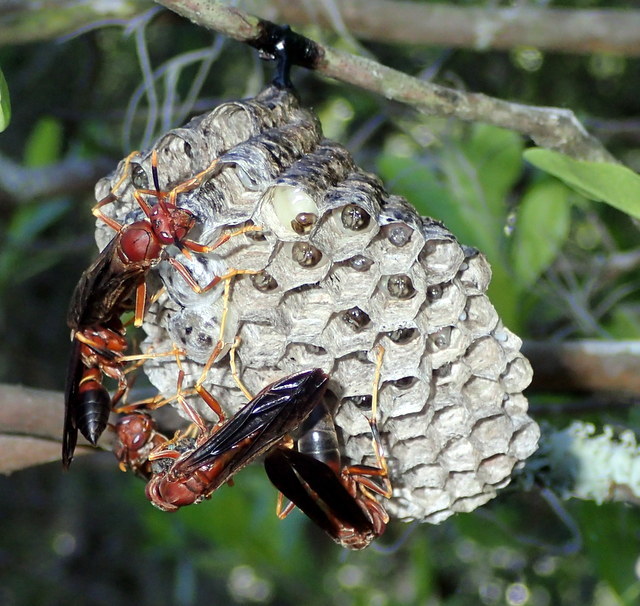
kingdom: Animalia
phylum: Arthropoda
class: Insecta
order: Hymenoptera
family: Eumenidae
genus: Polistes
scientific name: Polistes annularis
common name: Ringed paper wasp
